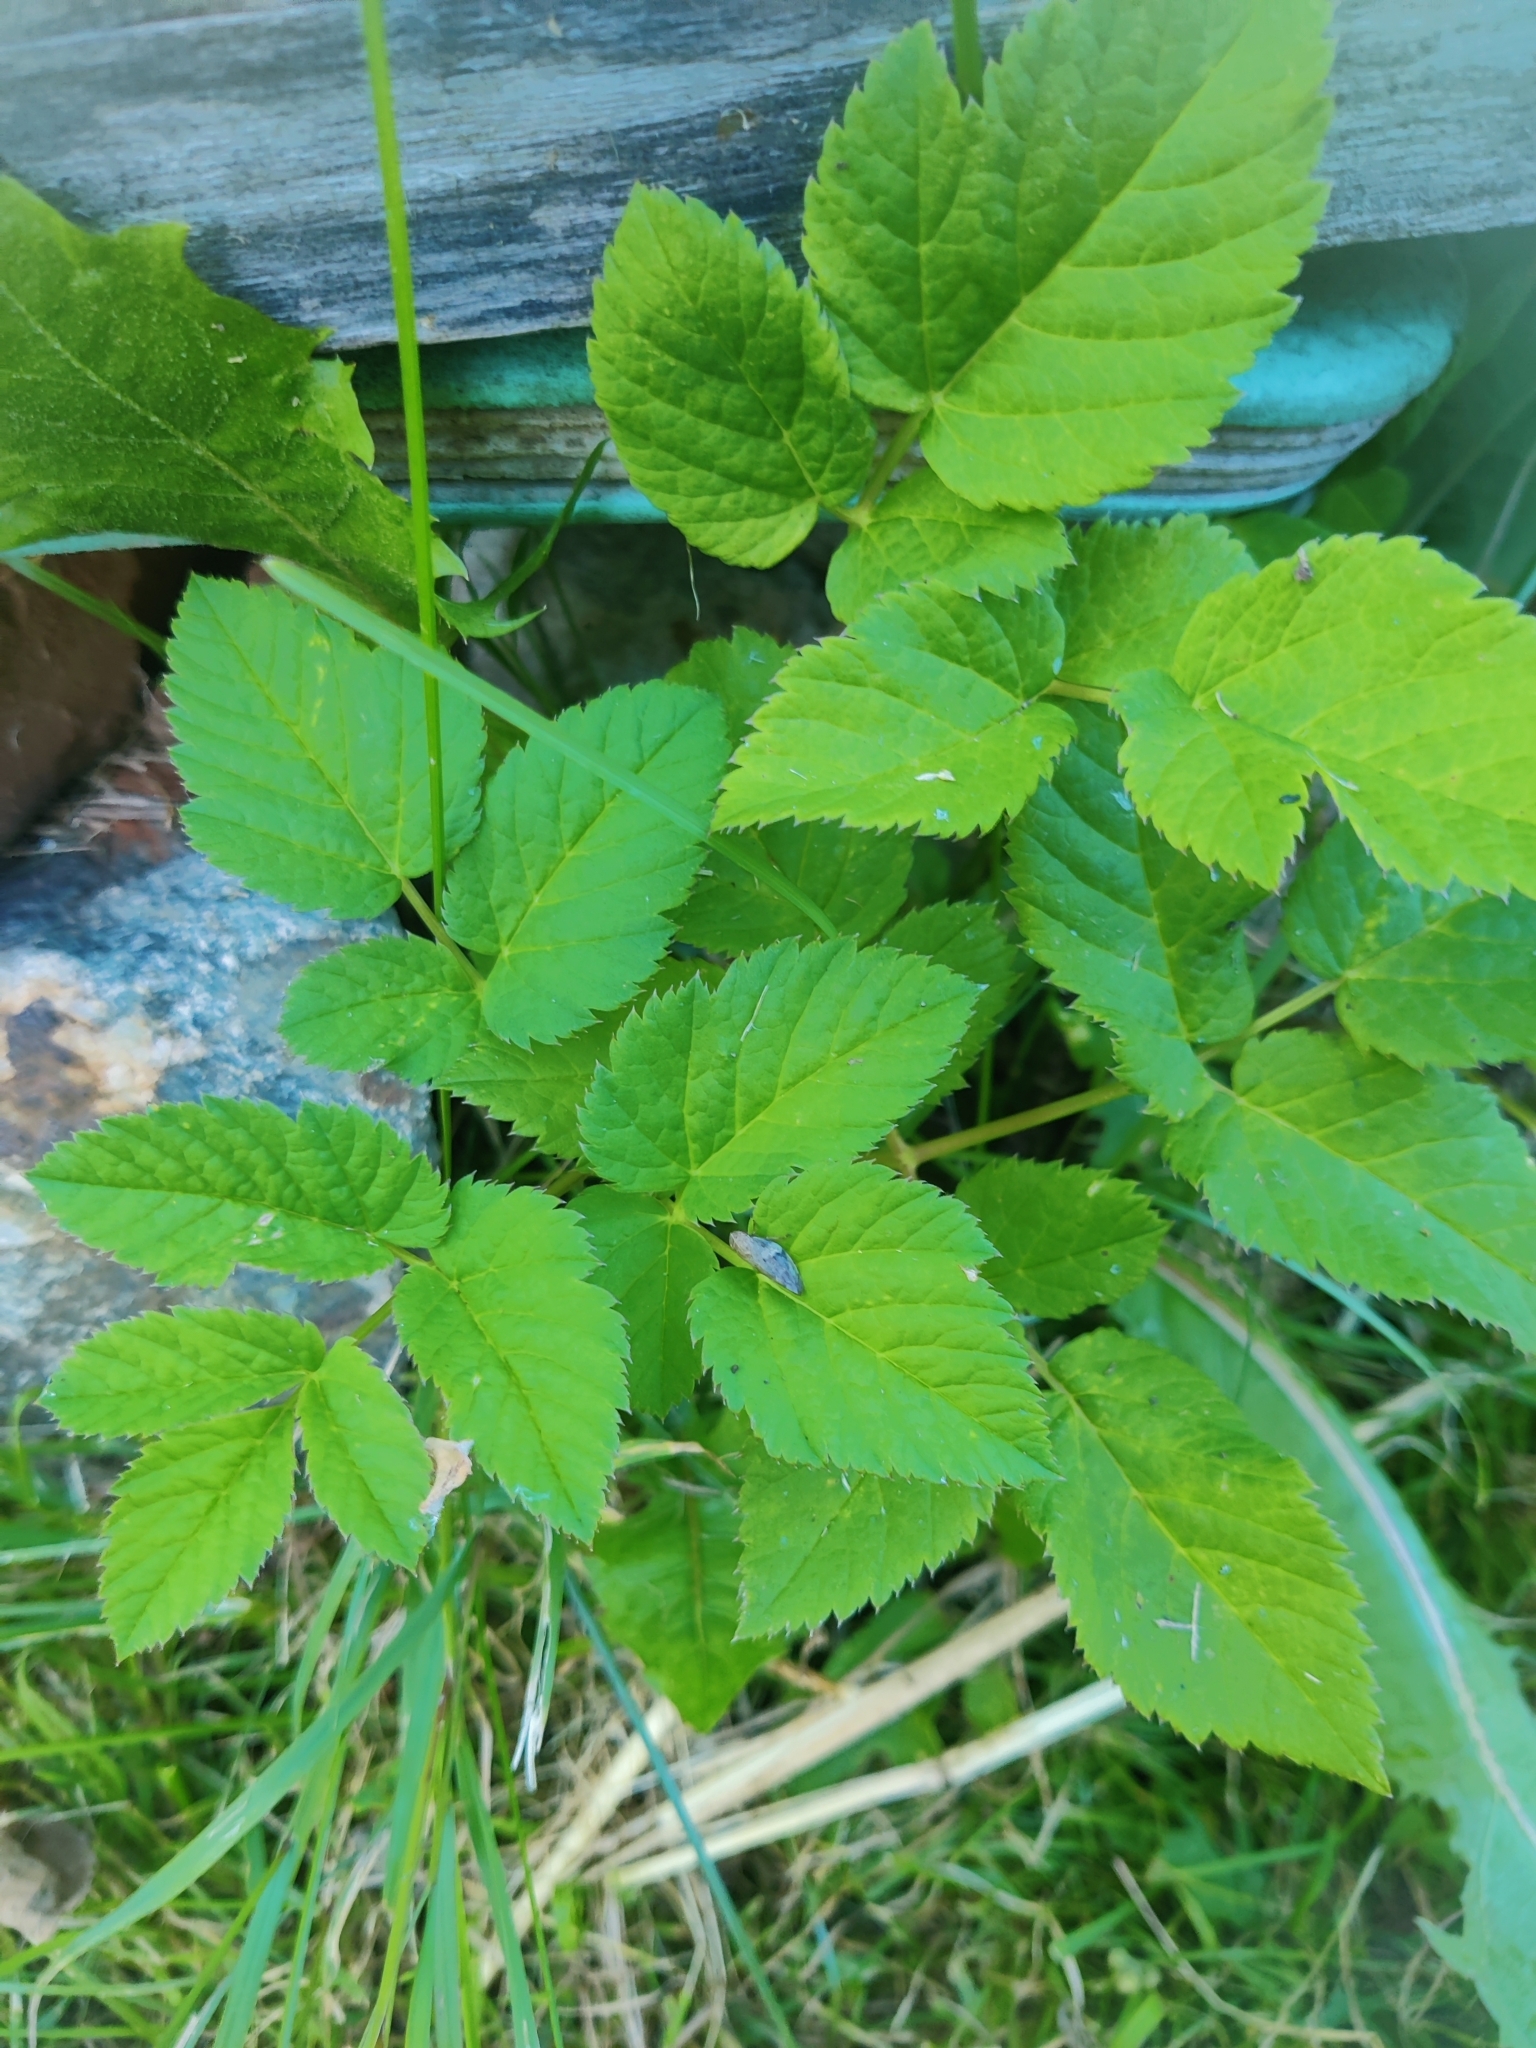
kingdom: Plantae
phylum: Tracheophyta
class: Magnoliopsida
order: Apiales
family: Apiaceae
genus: Aegopodium
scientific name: Aegopodium podagraria
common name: Ground-elder
